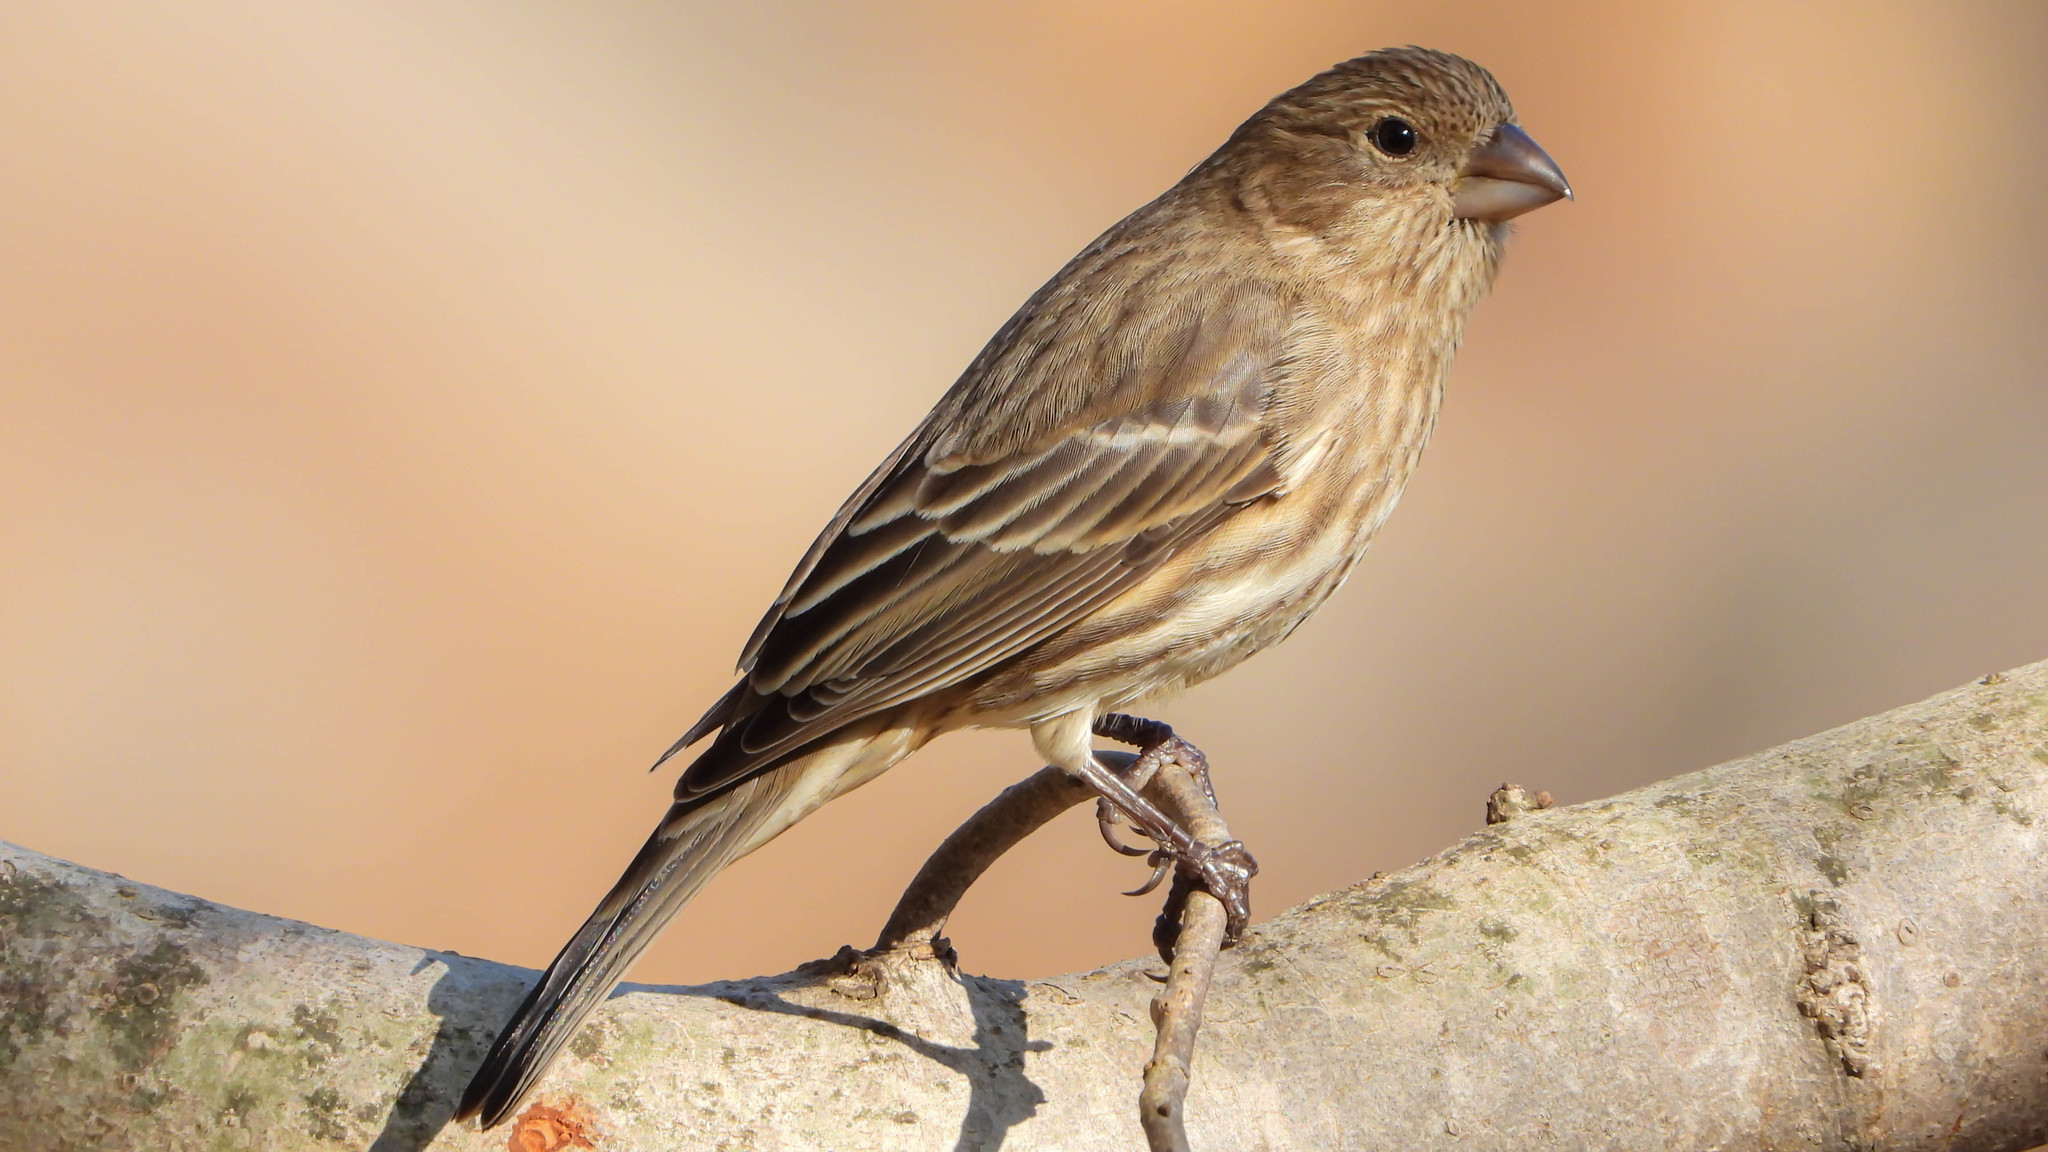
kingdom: Animalia
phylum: Chordata
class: Aves
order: Passeriformes
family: Fringillidae
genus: Haemorhous
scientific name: Haemorhous mexicanus
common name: House finch
